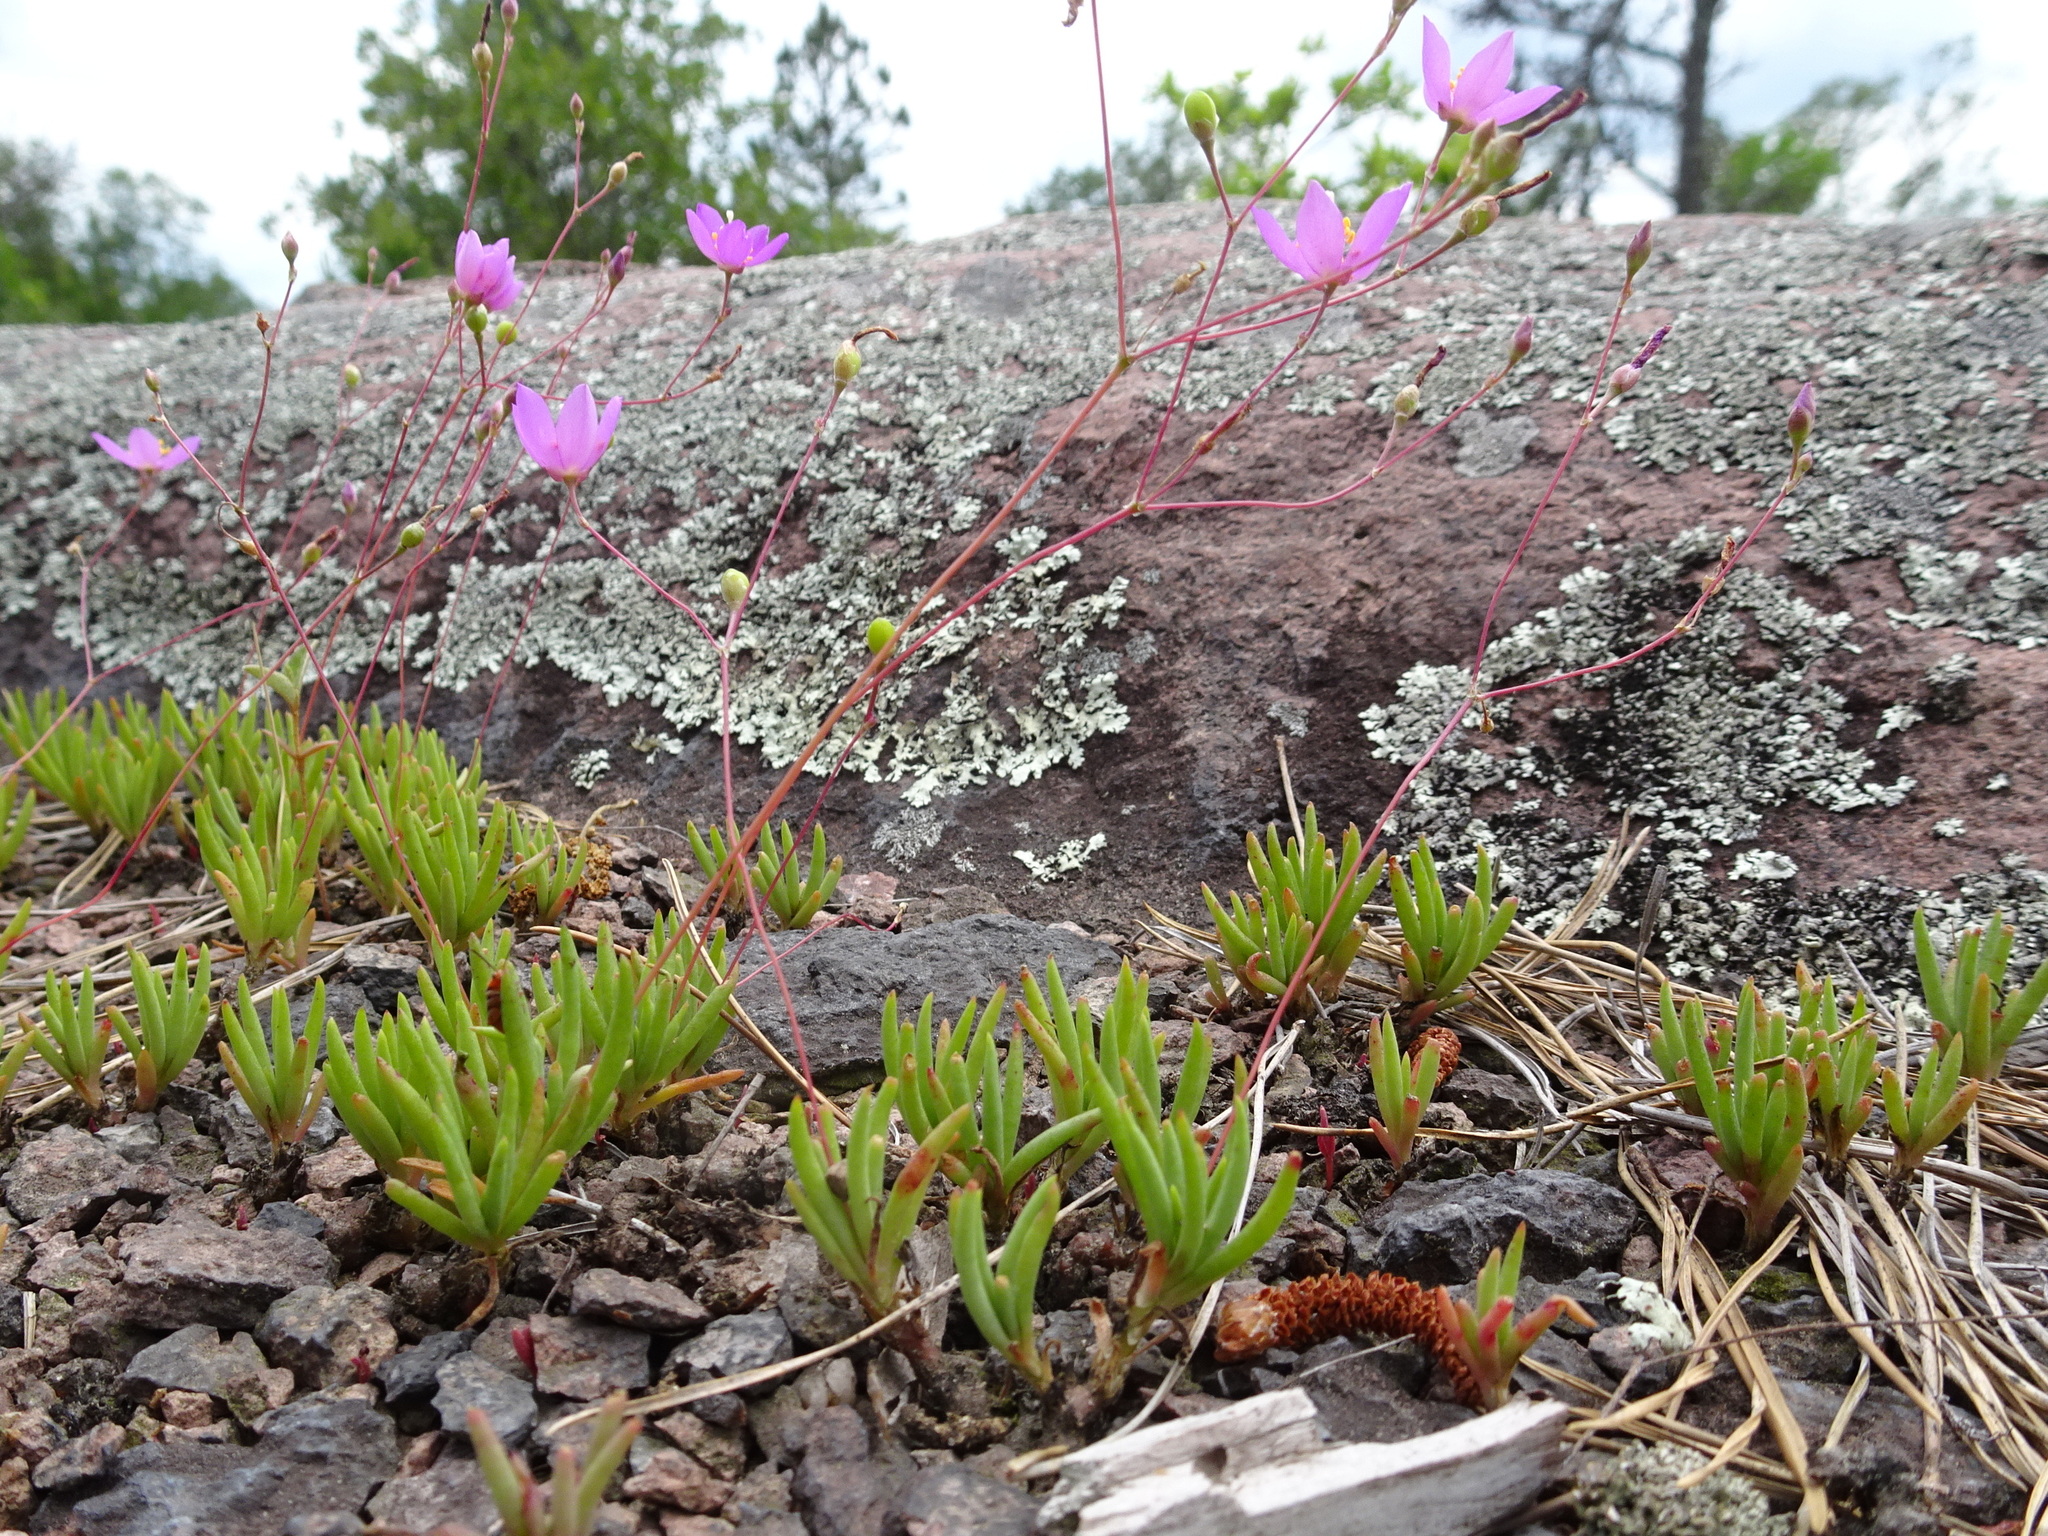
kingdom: Plantae
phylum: Tracheophyta
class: Magnoliopsida
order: Caryophyllales
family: Montiaceae
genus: Phemeranthus
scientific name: Phemeranthus calycinus
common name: Largeflower fameflower
